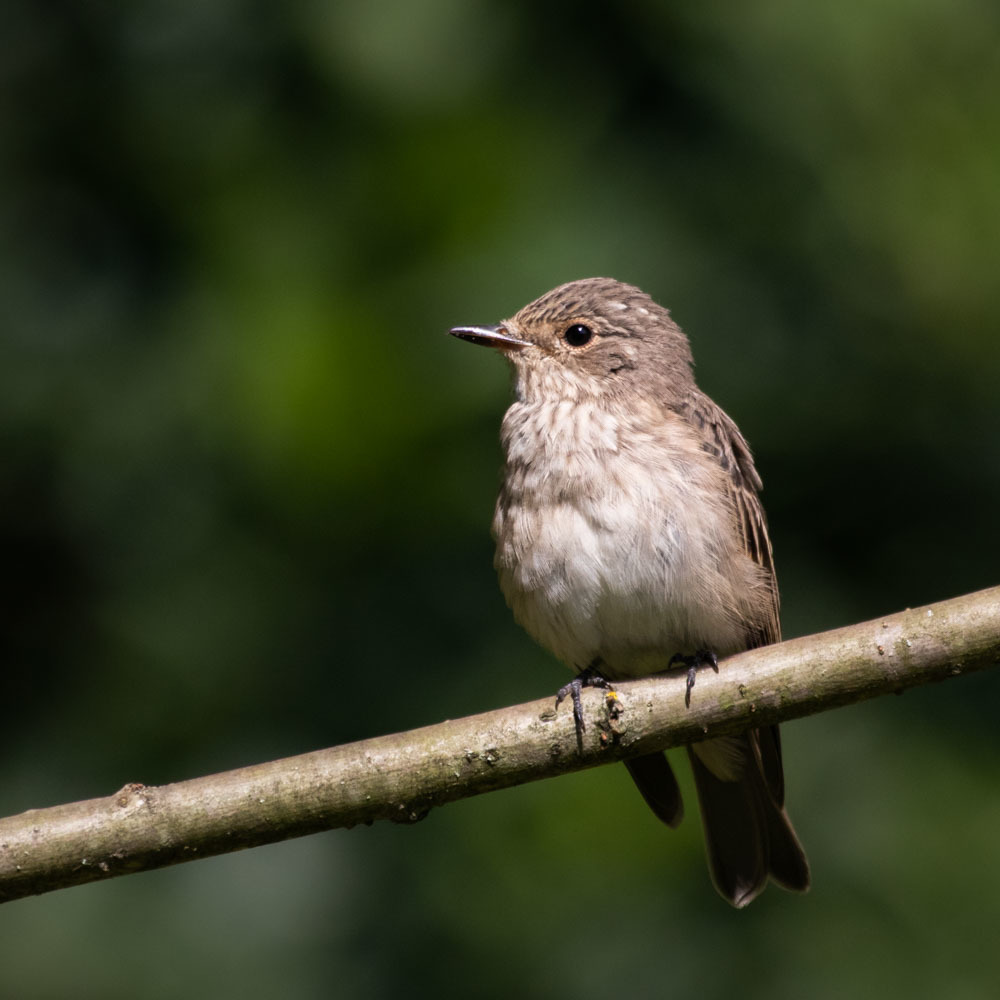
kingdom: Animalia
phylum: Chordata
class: Aves
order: Passeriformes
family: Muscicapidae
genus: Muscicapa
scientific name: Muscicapa striata
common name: Spotted flycatcher
